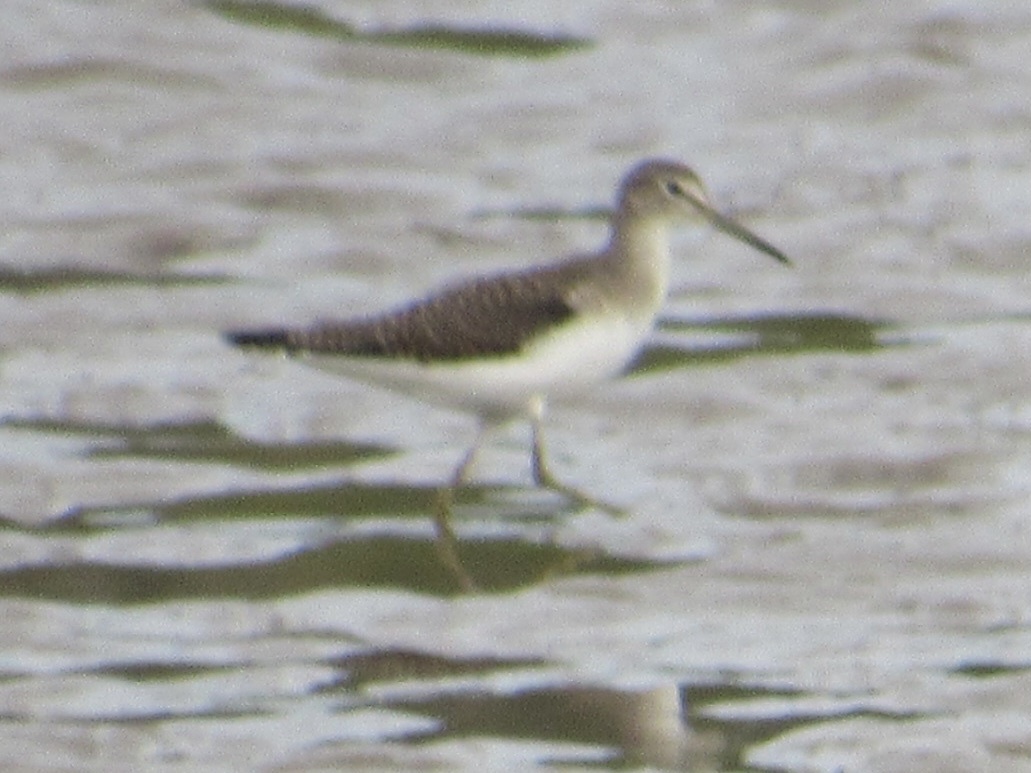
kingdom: Animalia
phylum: Chordata
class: Aves
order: Charadriiformes
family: Scolopacidae
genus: Tringa
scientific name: Tringa solitaria
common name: Solitary sandpiper
